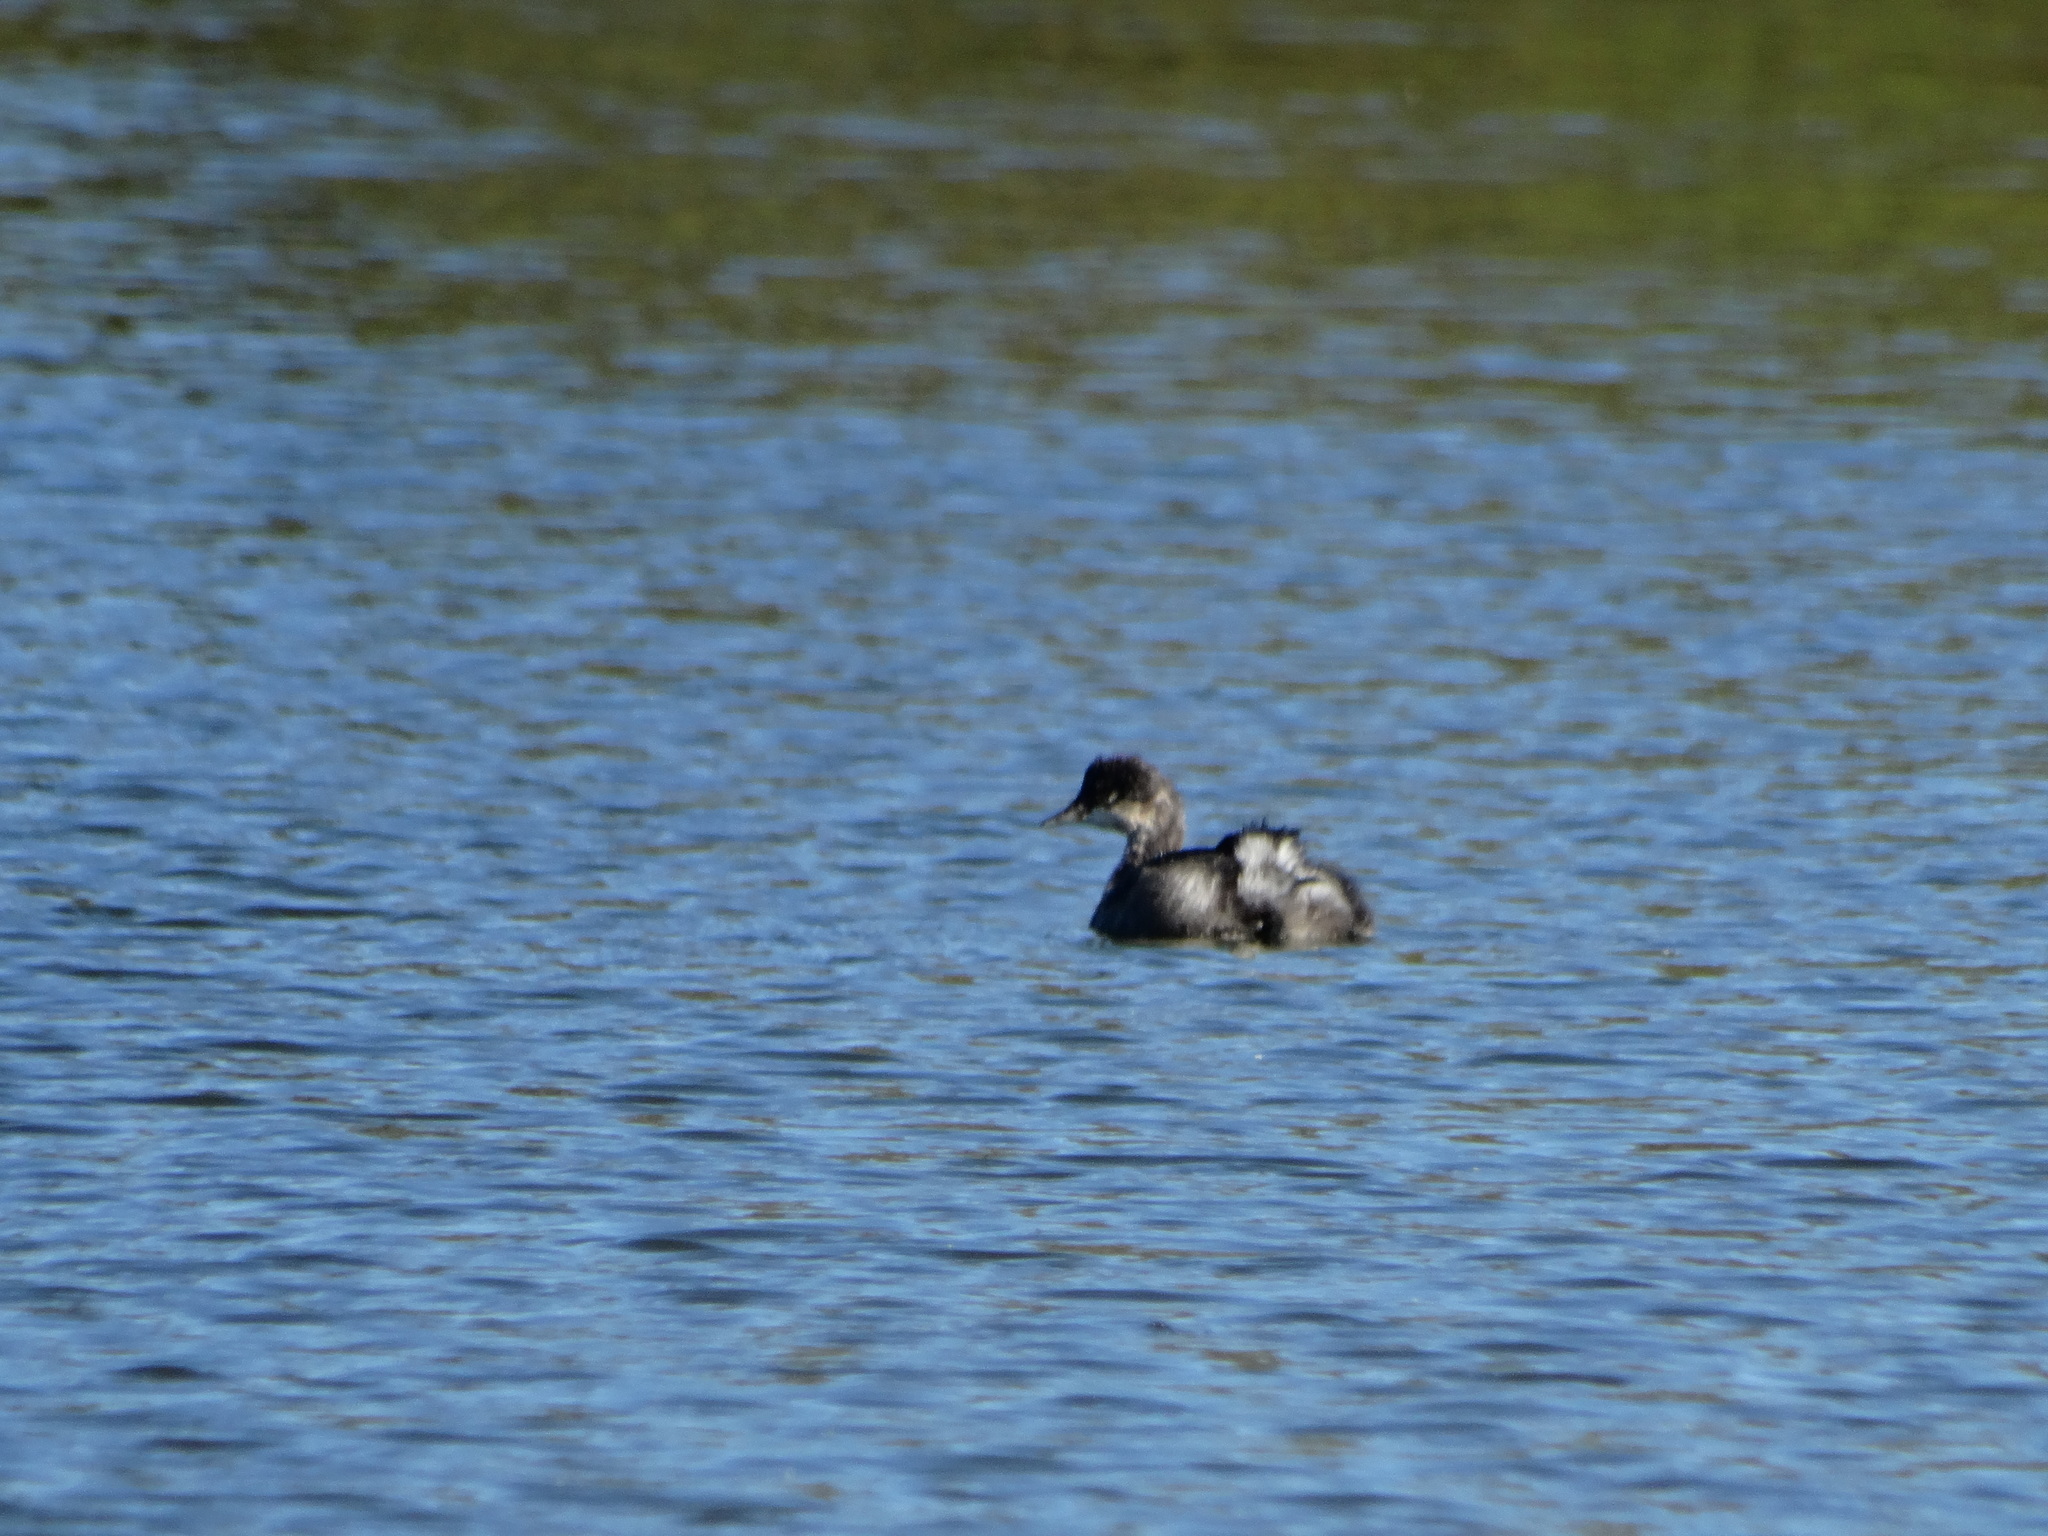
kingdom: Animalia
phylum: Chordata
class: Aves
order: Podicipediformes
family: Podicipedidae
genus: Podiceps
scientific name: Podiceps nigricollis
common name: Black-necked grebe
